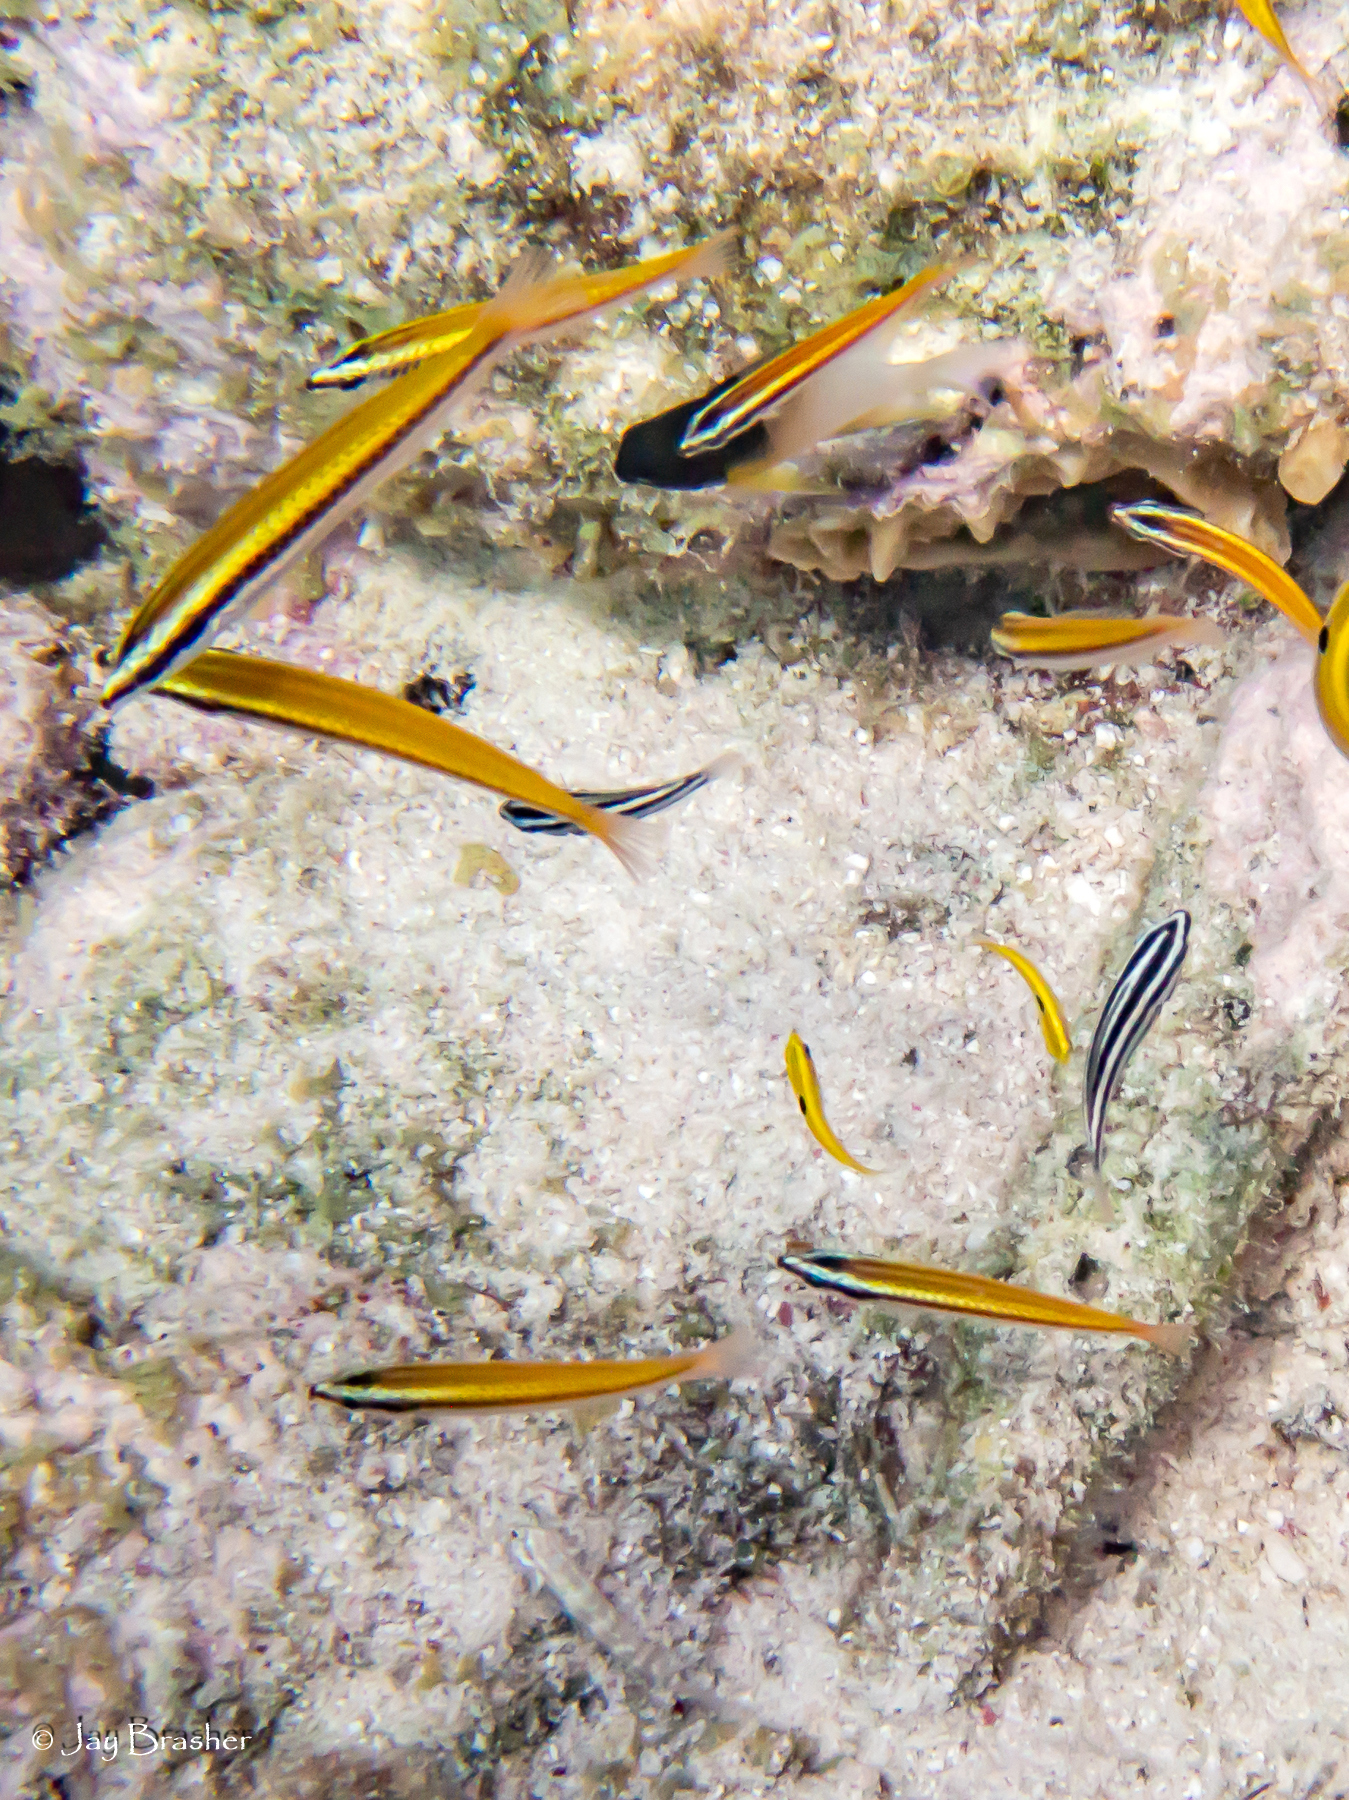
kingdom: Animalia
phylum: Chordata
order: Perciformes
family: Labridae
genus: Halichoeres
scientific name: Halichoeres pictus
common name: Rainbow wrasse
